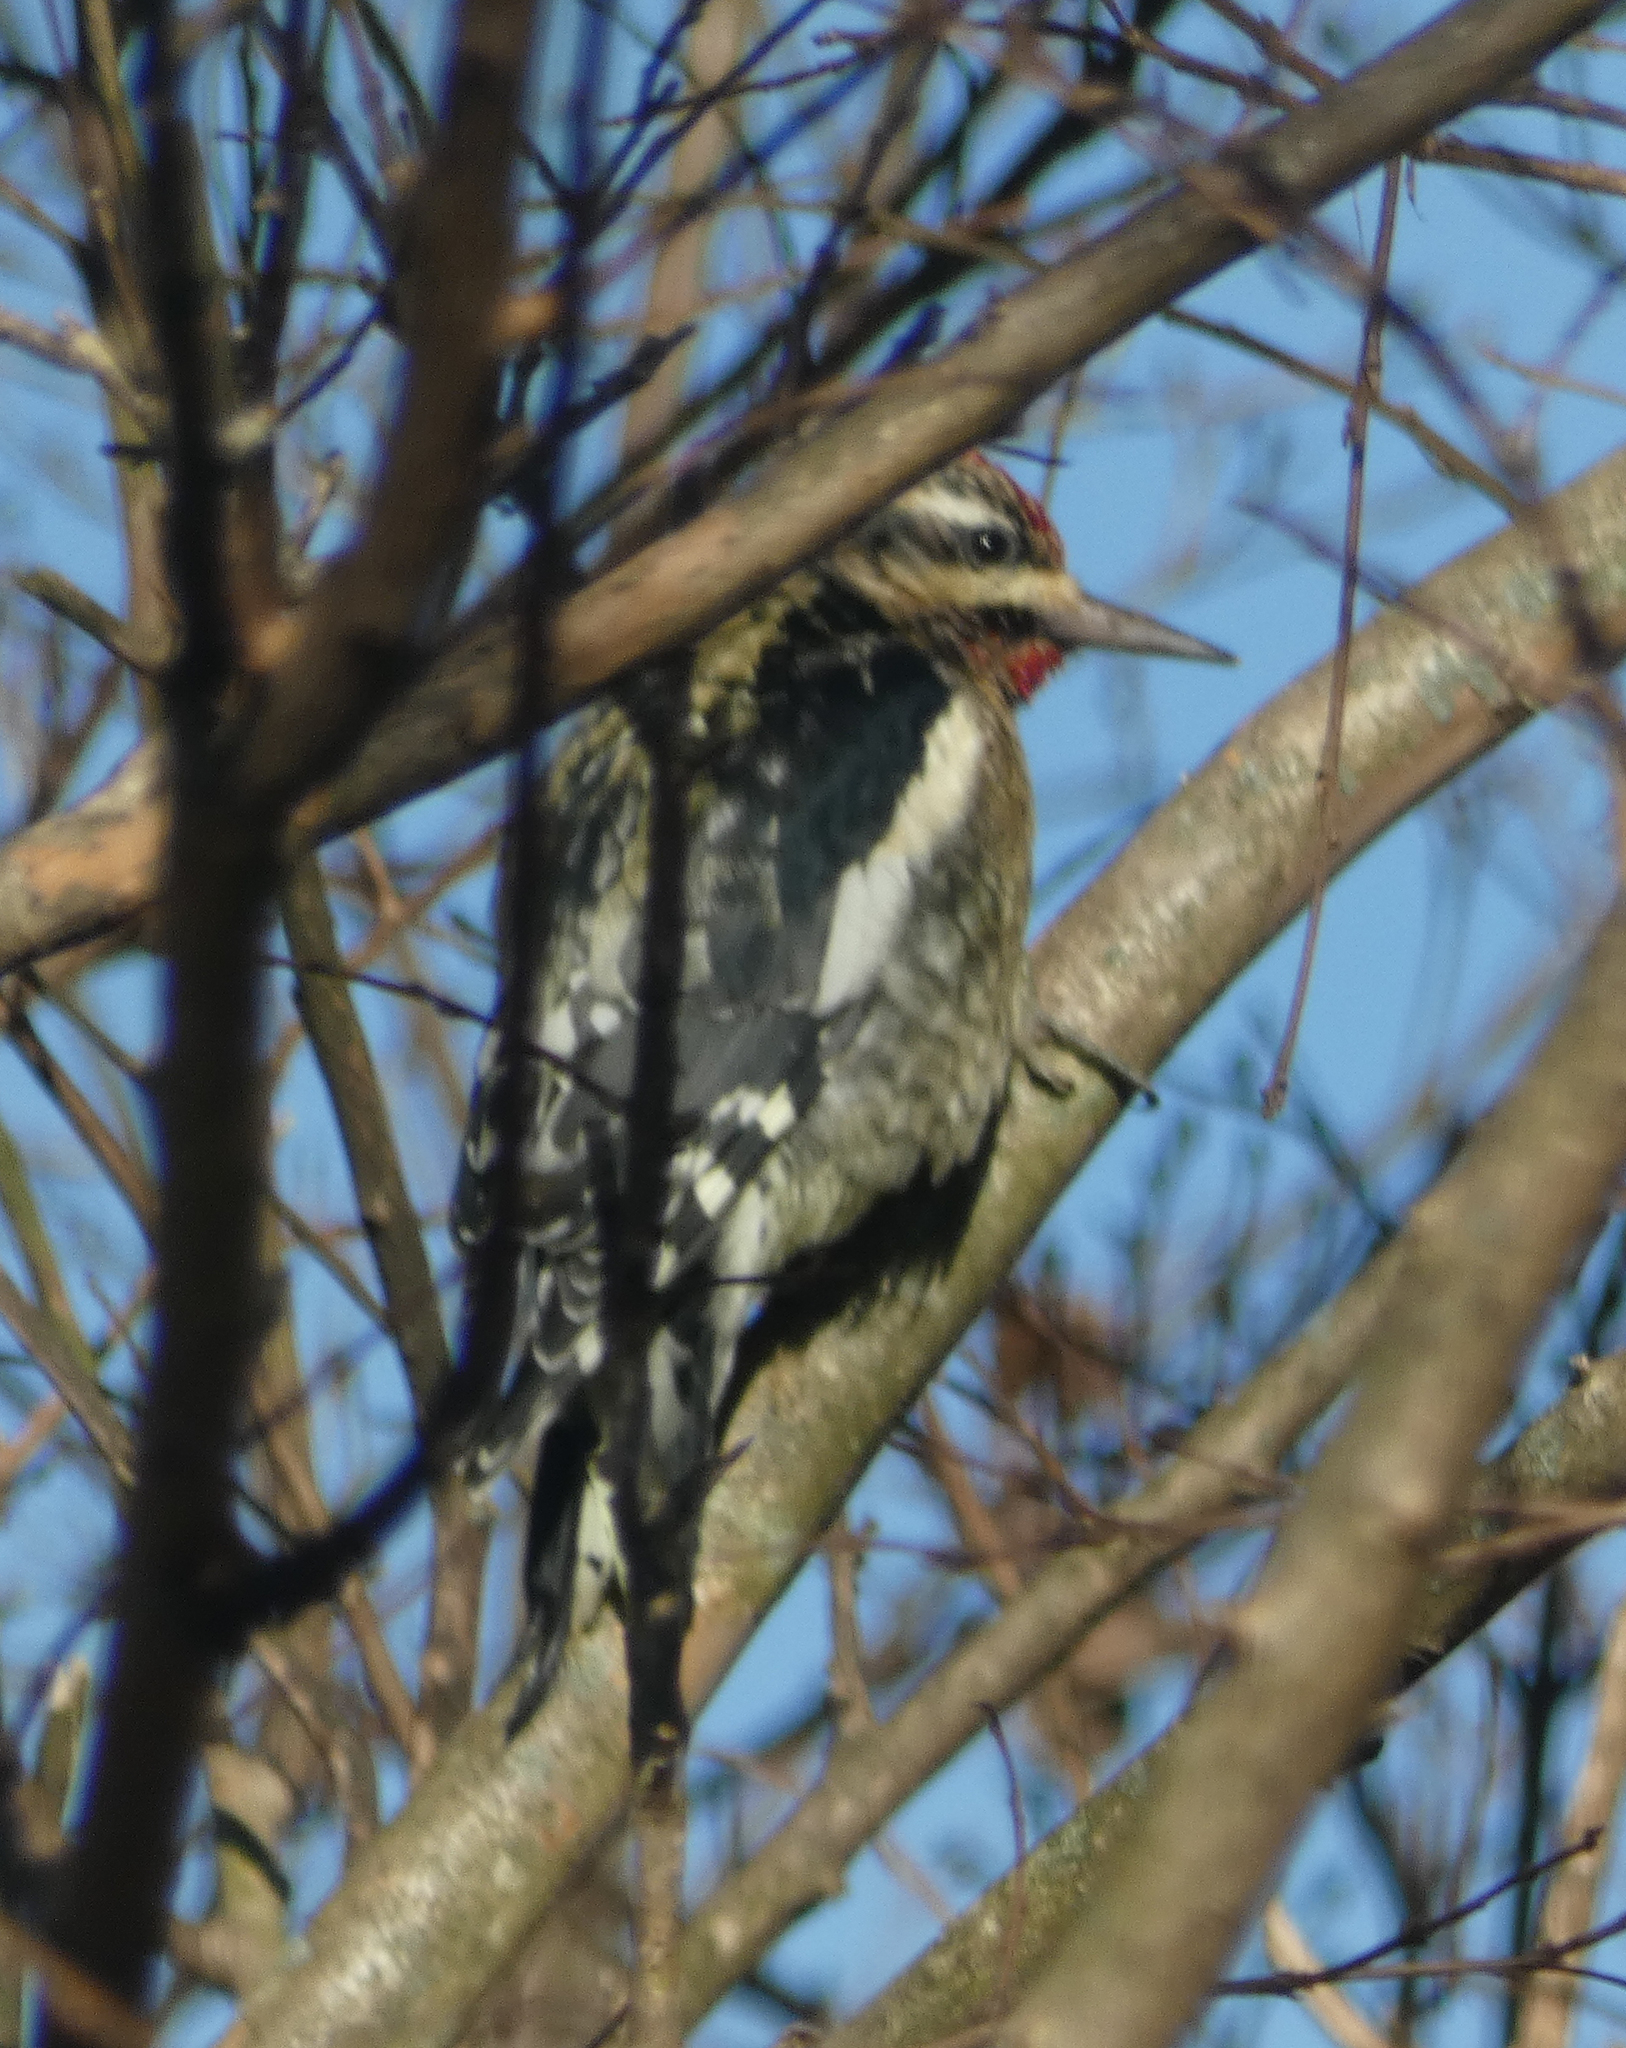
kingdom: Animalia
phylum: Chordata
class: Aves
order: Piciformes
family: Picidae
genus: Sphyrapicus
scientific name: Sphyrapicus varius
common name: Yellow-bellied sapsucker
